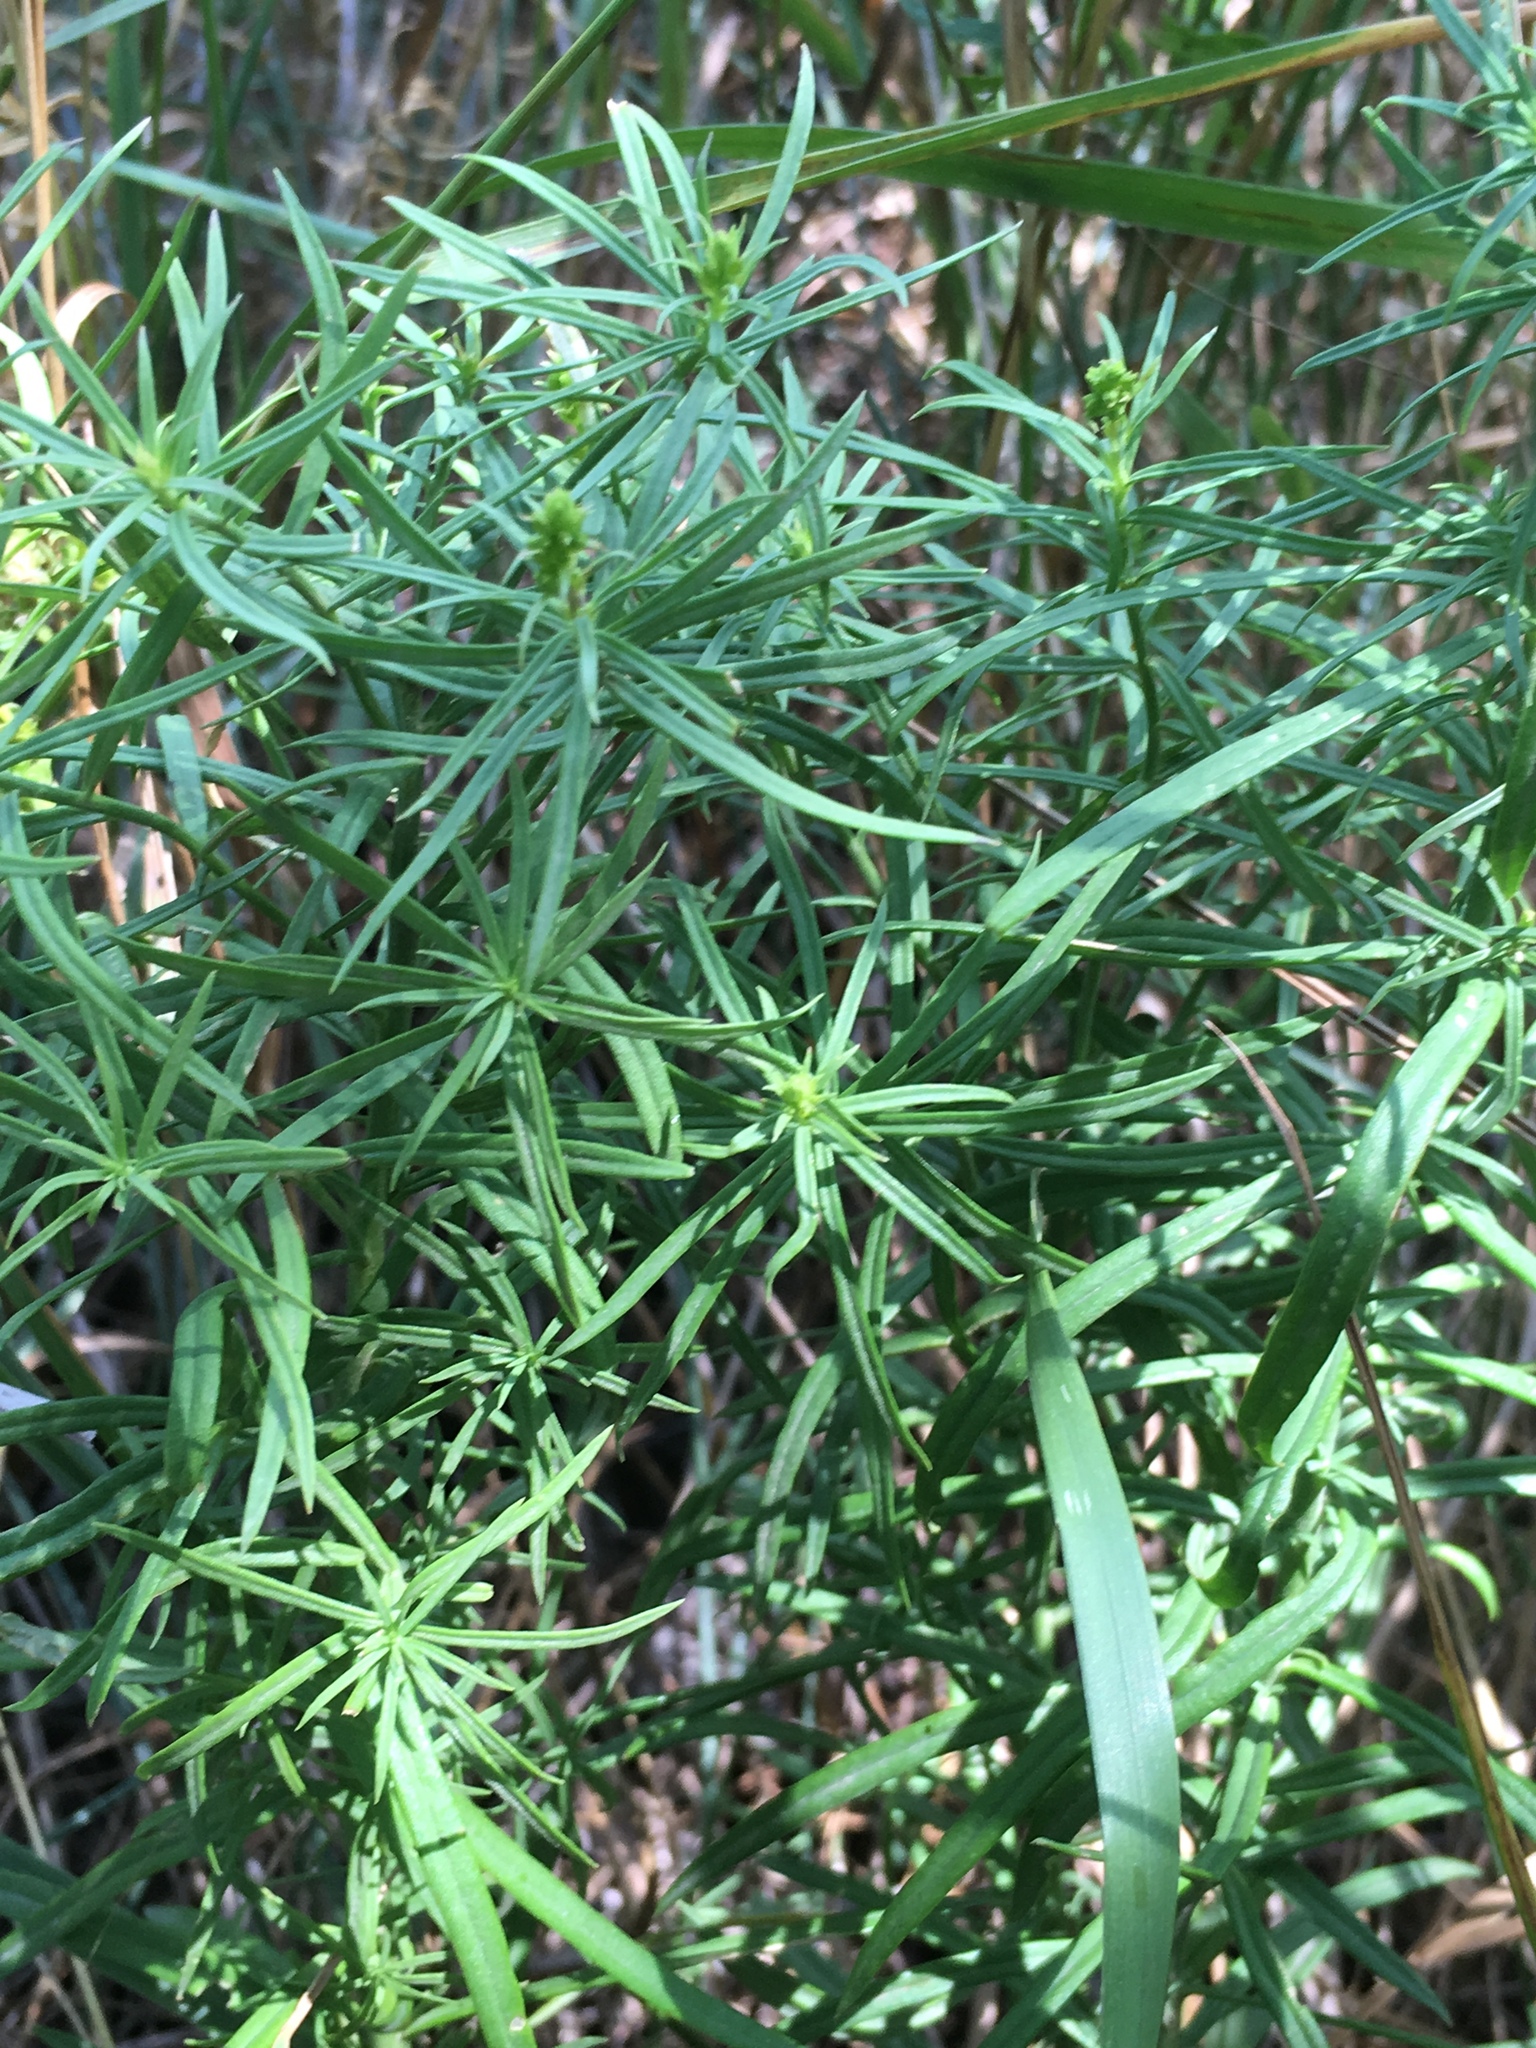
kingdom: Plantae
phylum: Tracheophyta
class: Magnoliopsida
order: Lamiales
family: Plantaginaceae
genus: Linaria
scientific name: Linaria vulgaris
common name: Butter and eggs
